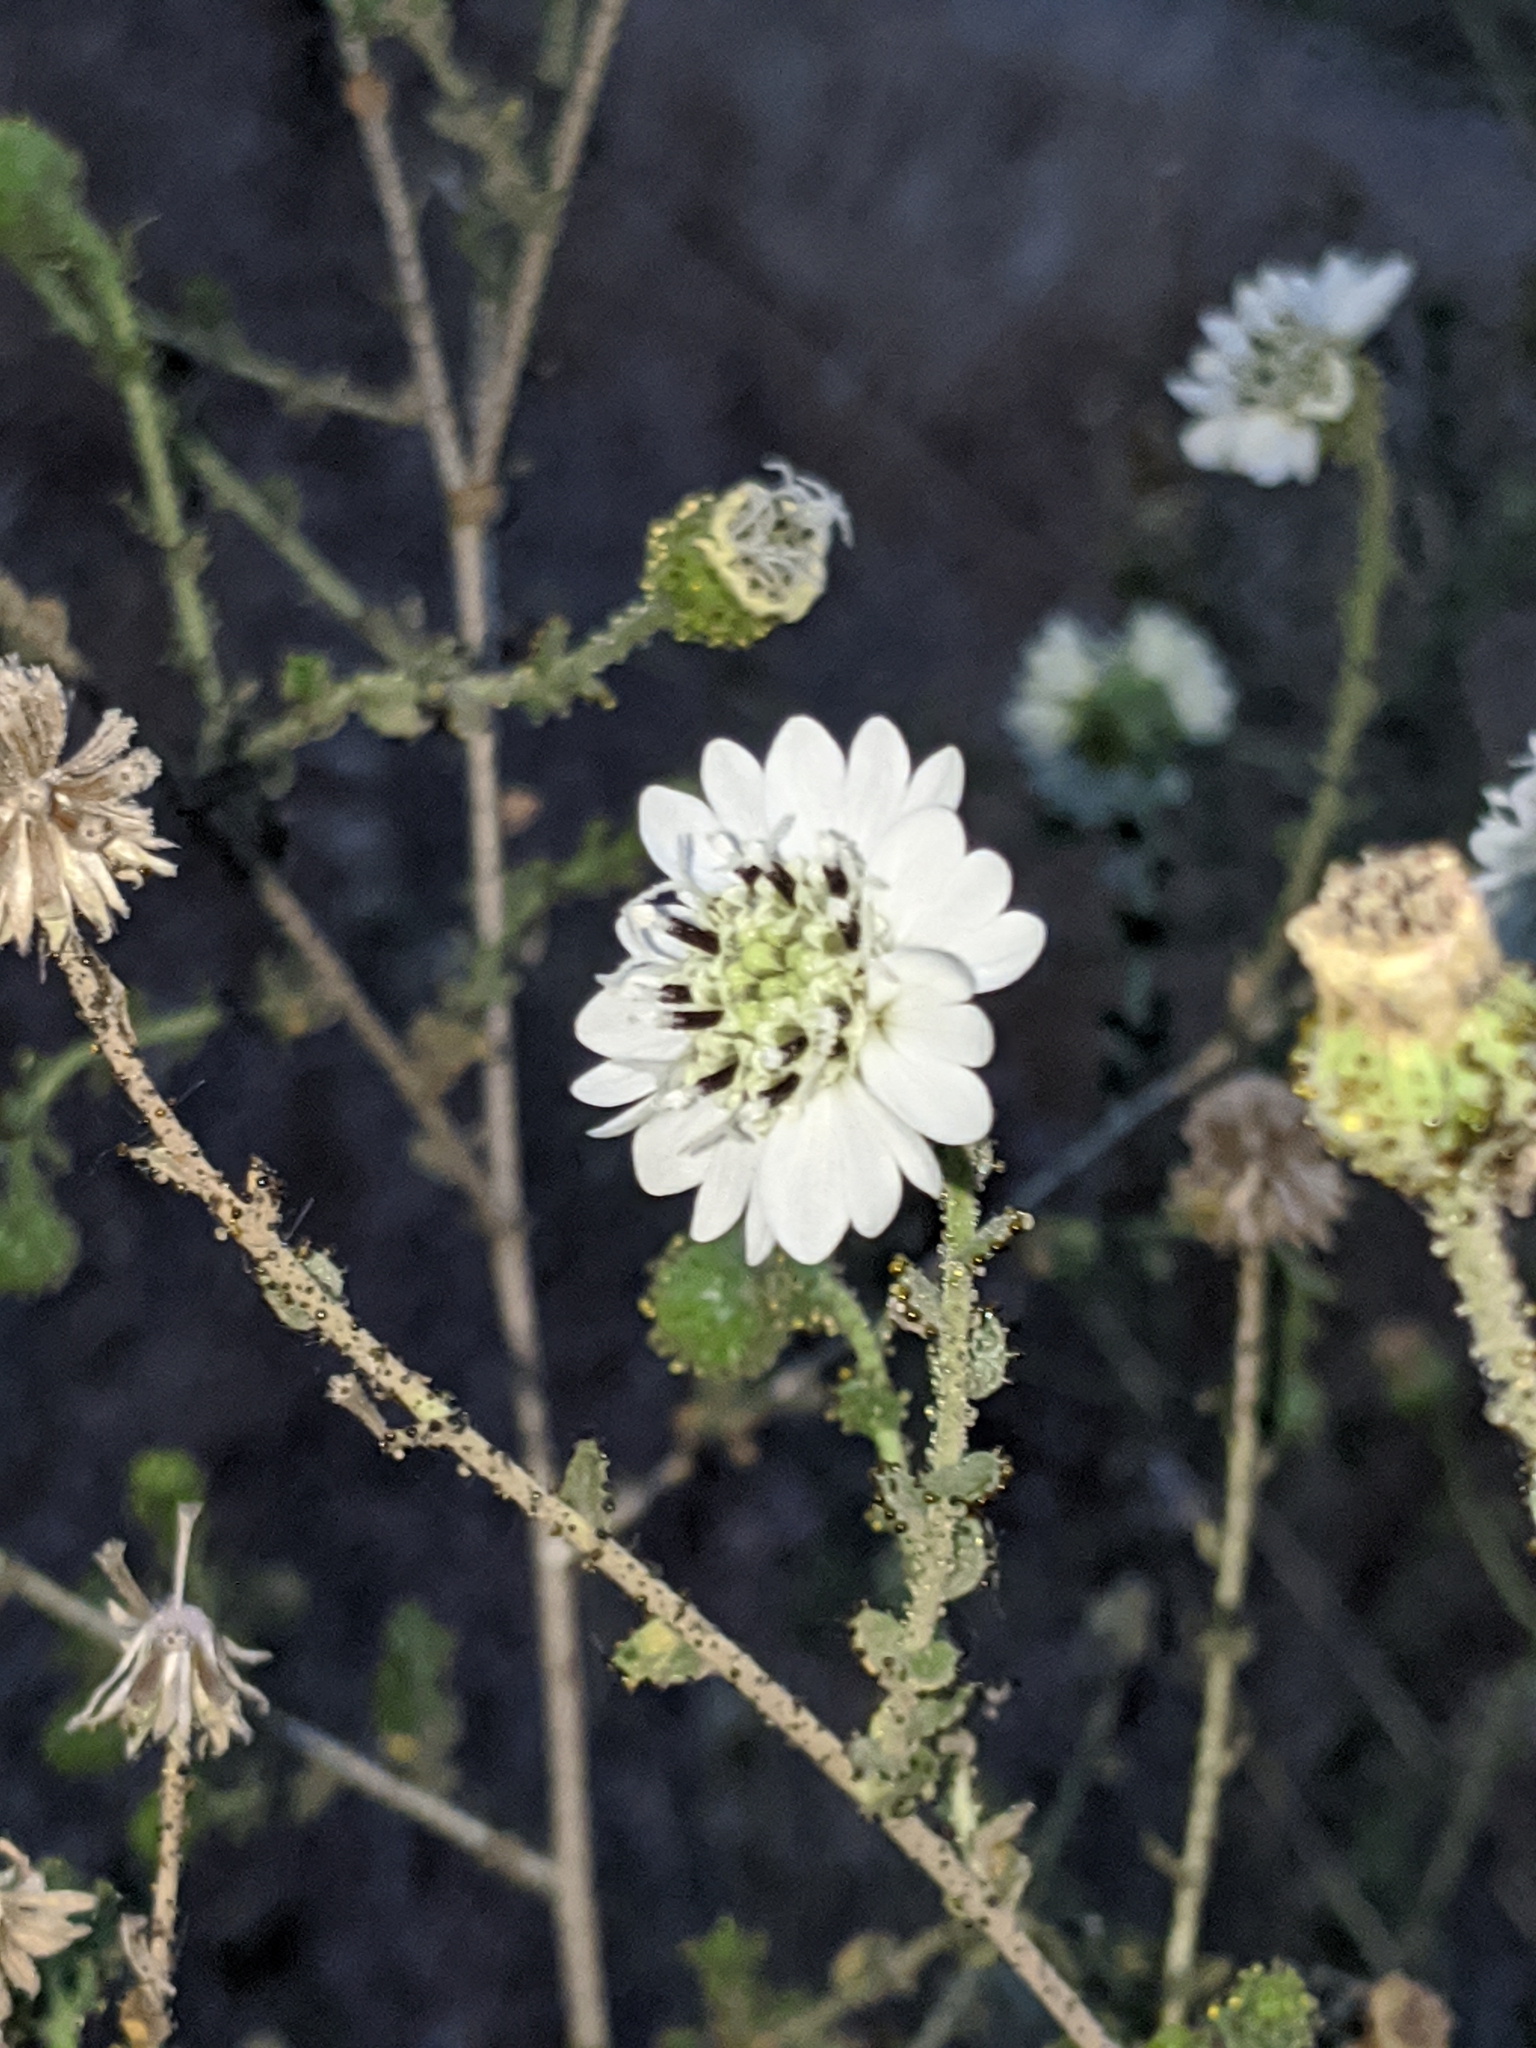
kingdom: Plantae
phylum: Tracheophyta
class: Magnoliopsida
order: Asterales
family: Asteraceae
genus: Blepharizonia
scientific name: Blepharizonia laxa
